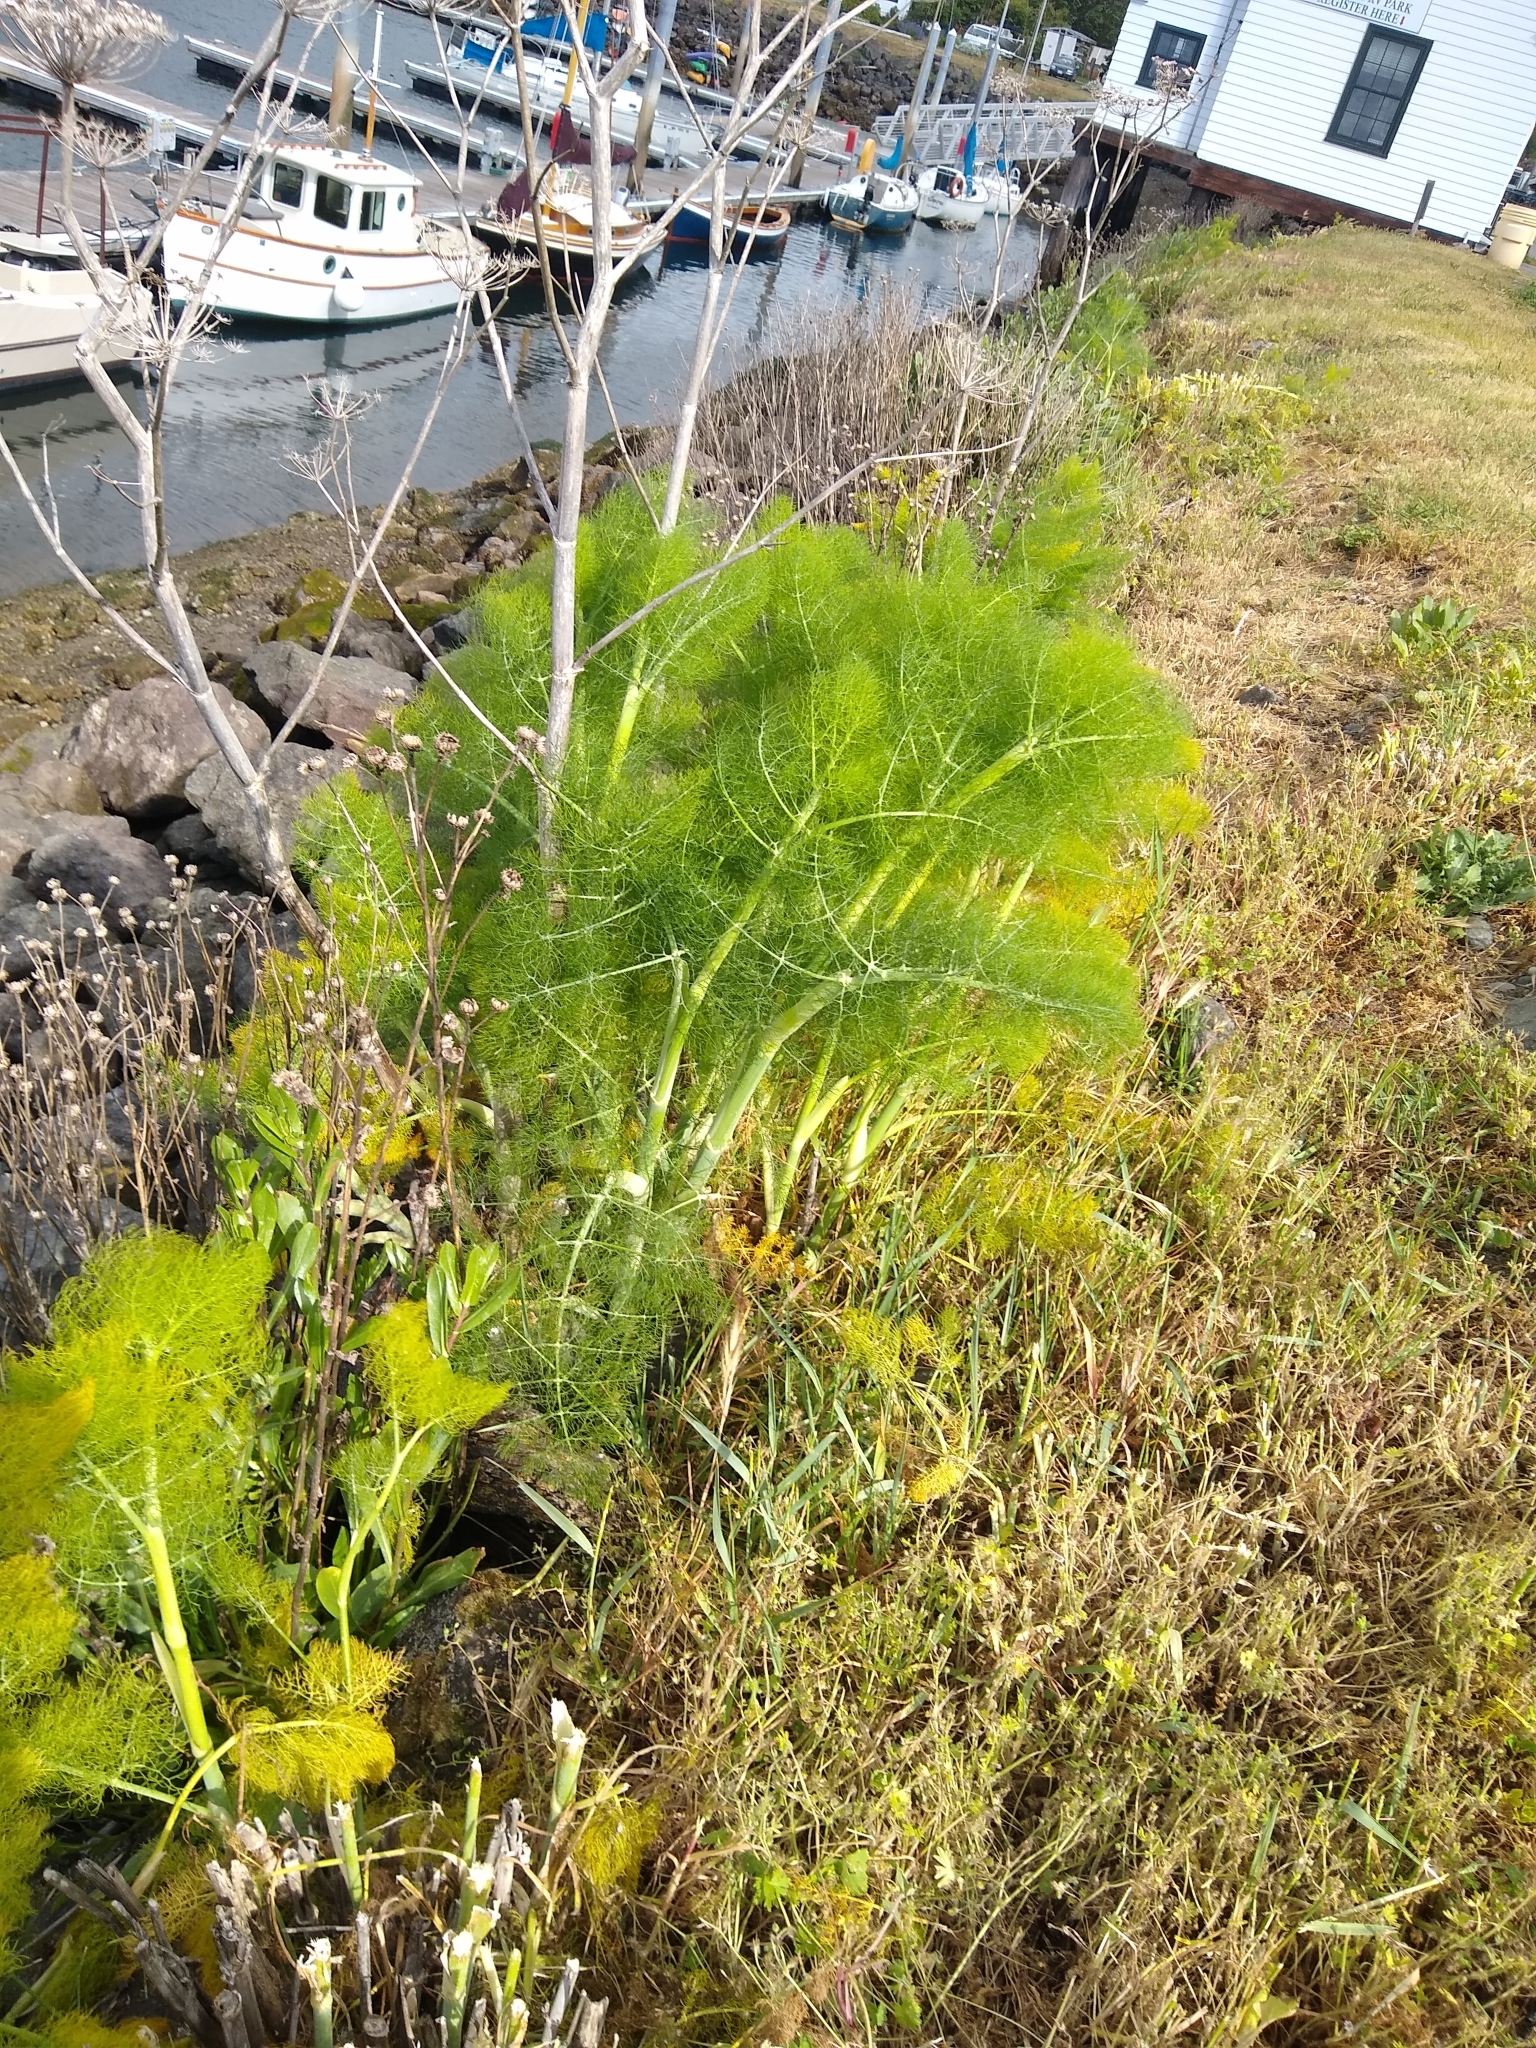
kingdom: Plantae
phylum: Tracheophyta
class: Magnoliopsida
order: Apiales
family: Apiaceae
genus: Foeniculum
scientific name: Foeniculum vulgare
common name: Fennel
